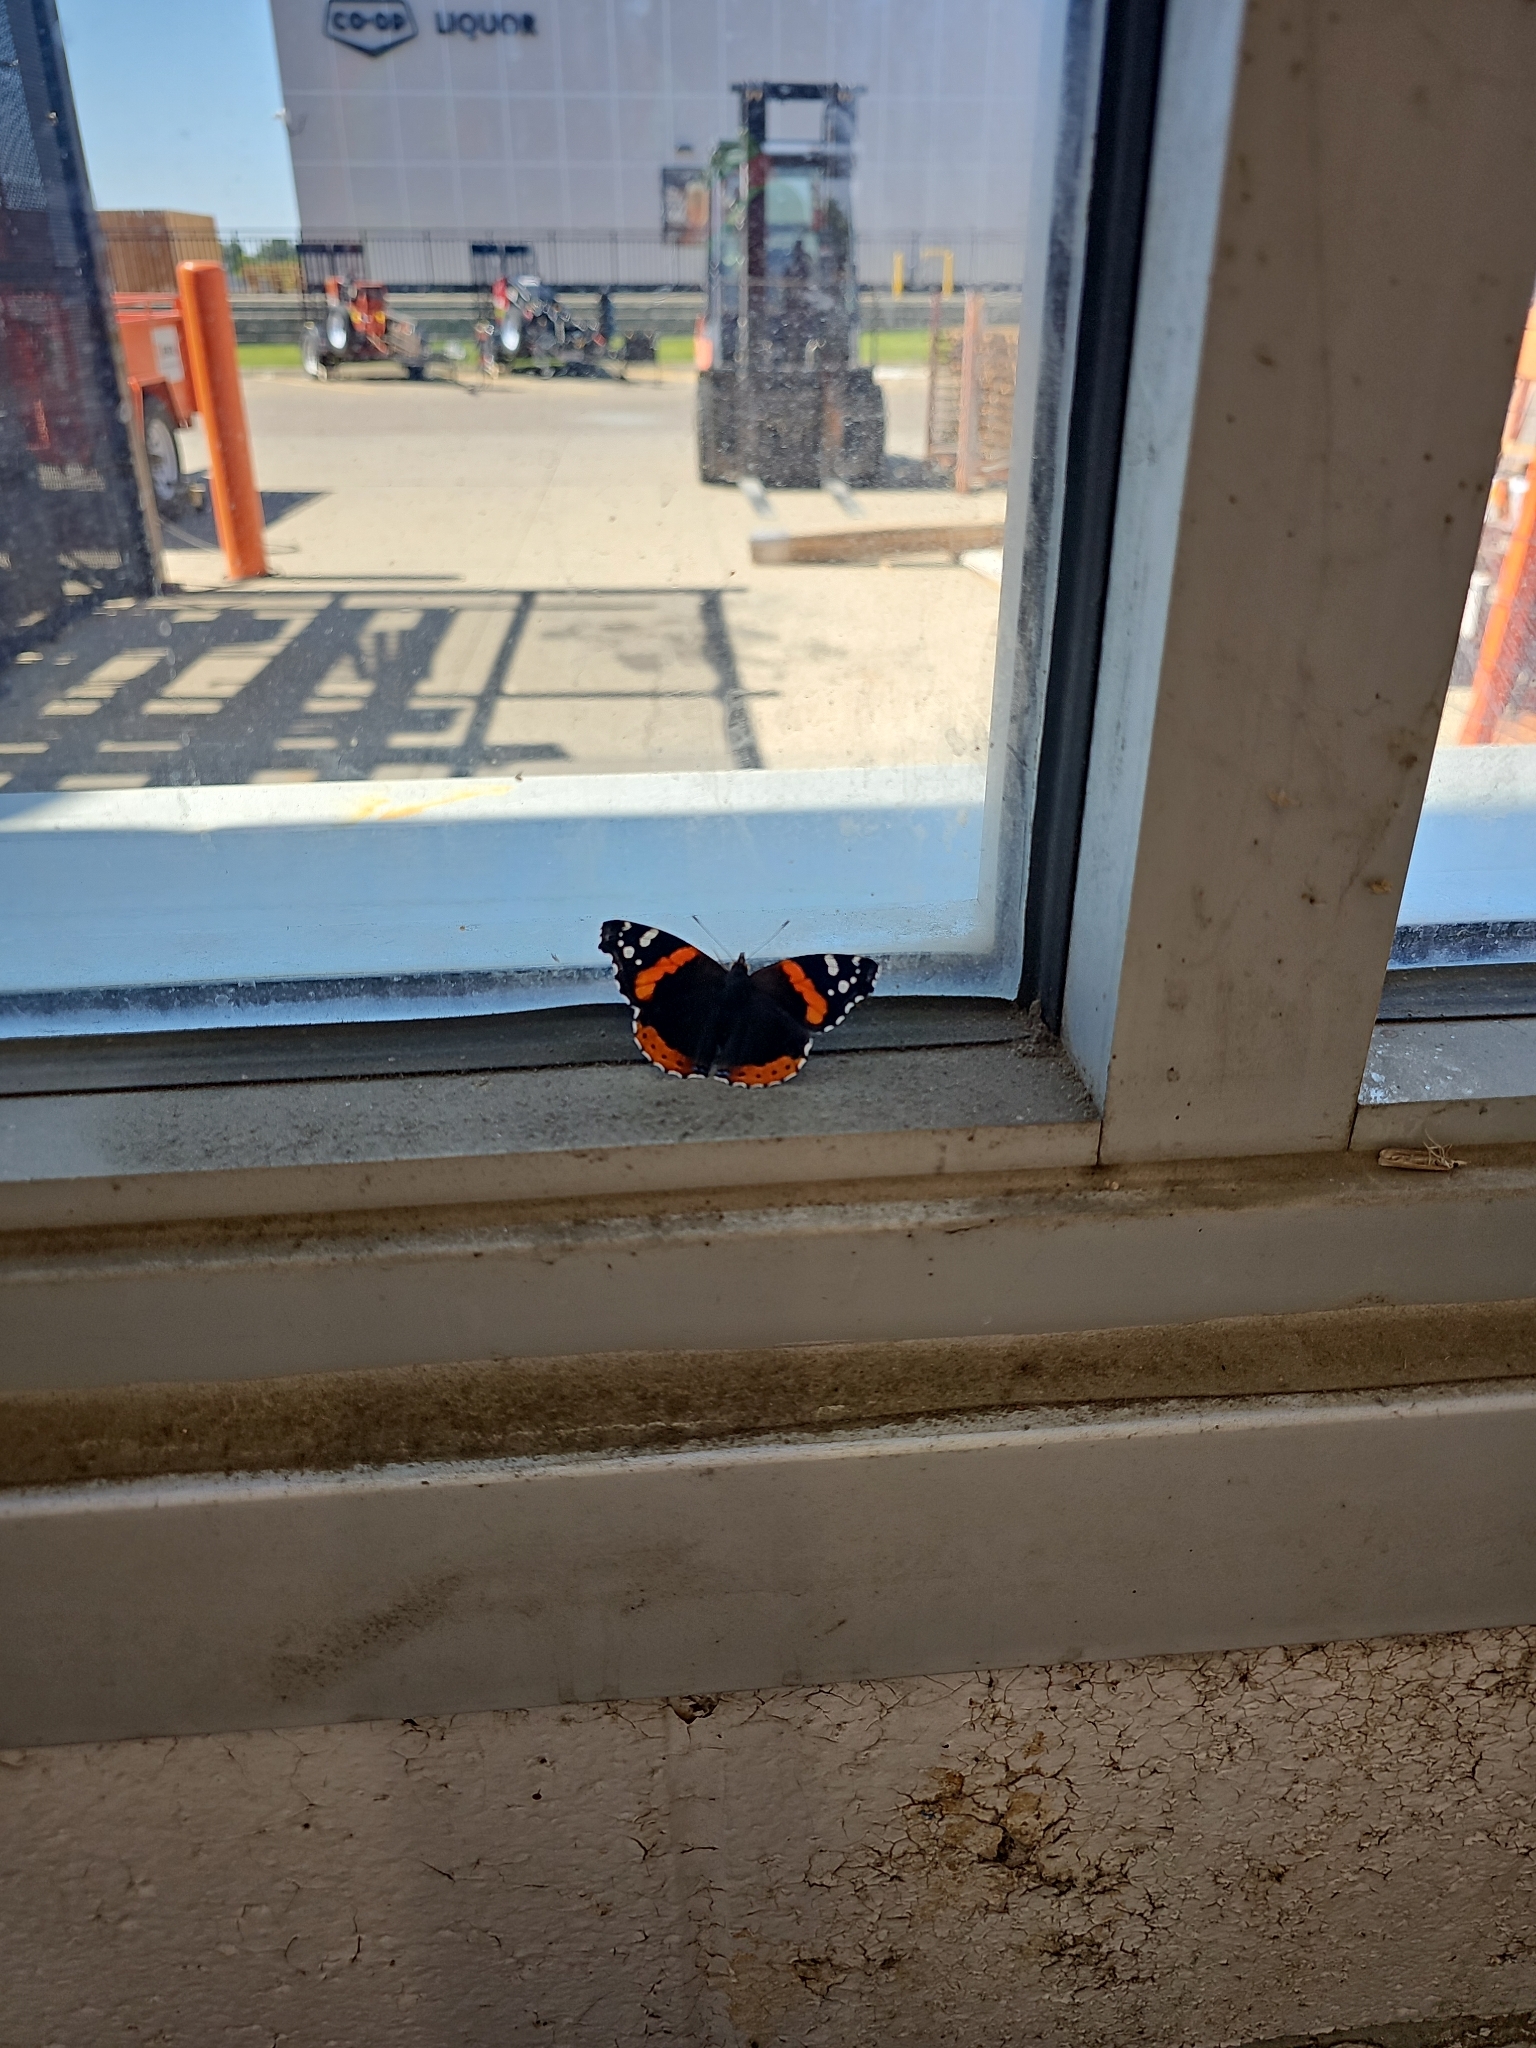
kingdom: Animalia
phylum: Arthropoda
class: Insecta
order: Lepidoptera
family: Nymphalidae
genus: Vanessa
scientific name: Vanessa atalanta
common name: Red admiral
